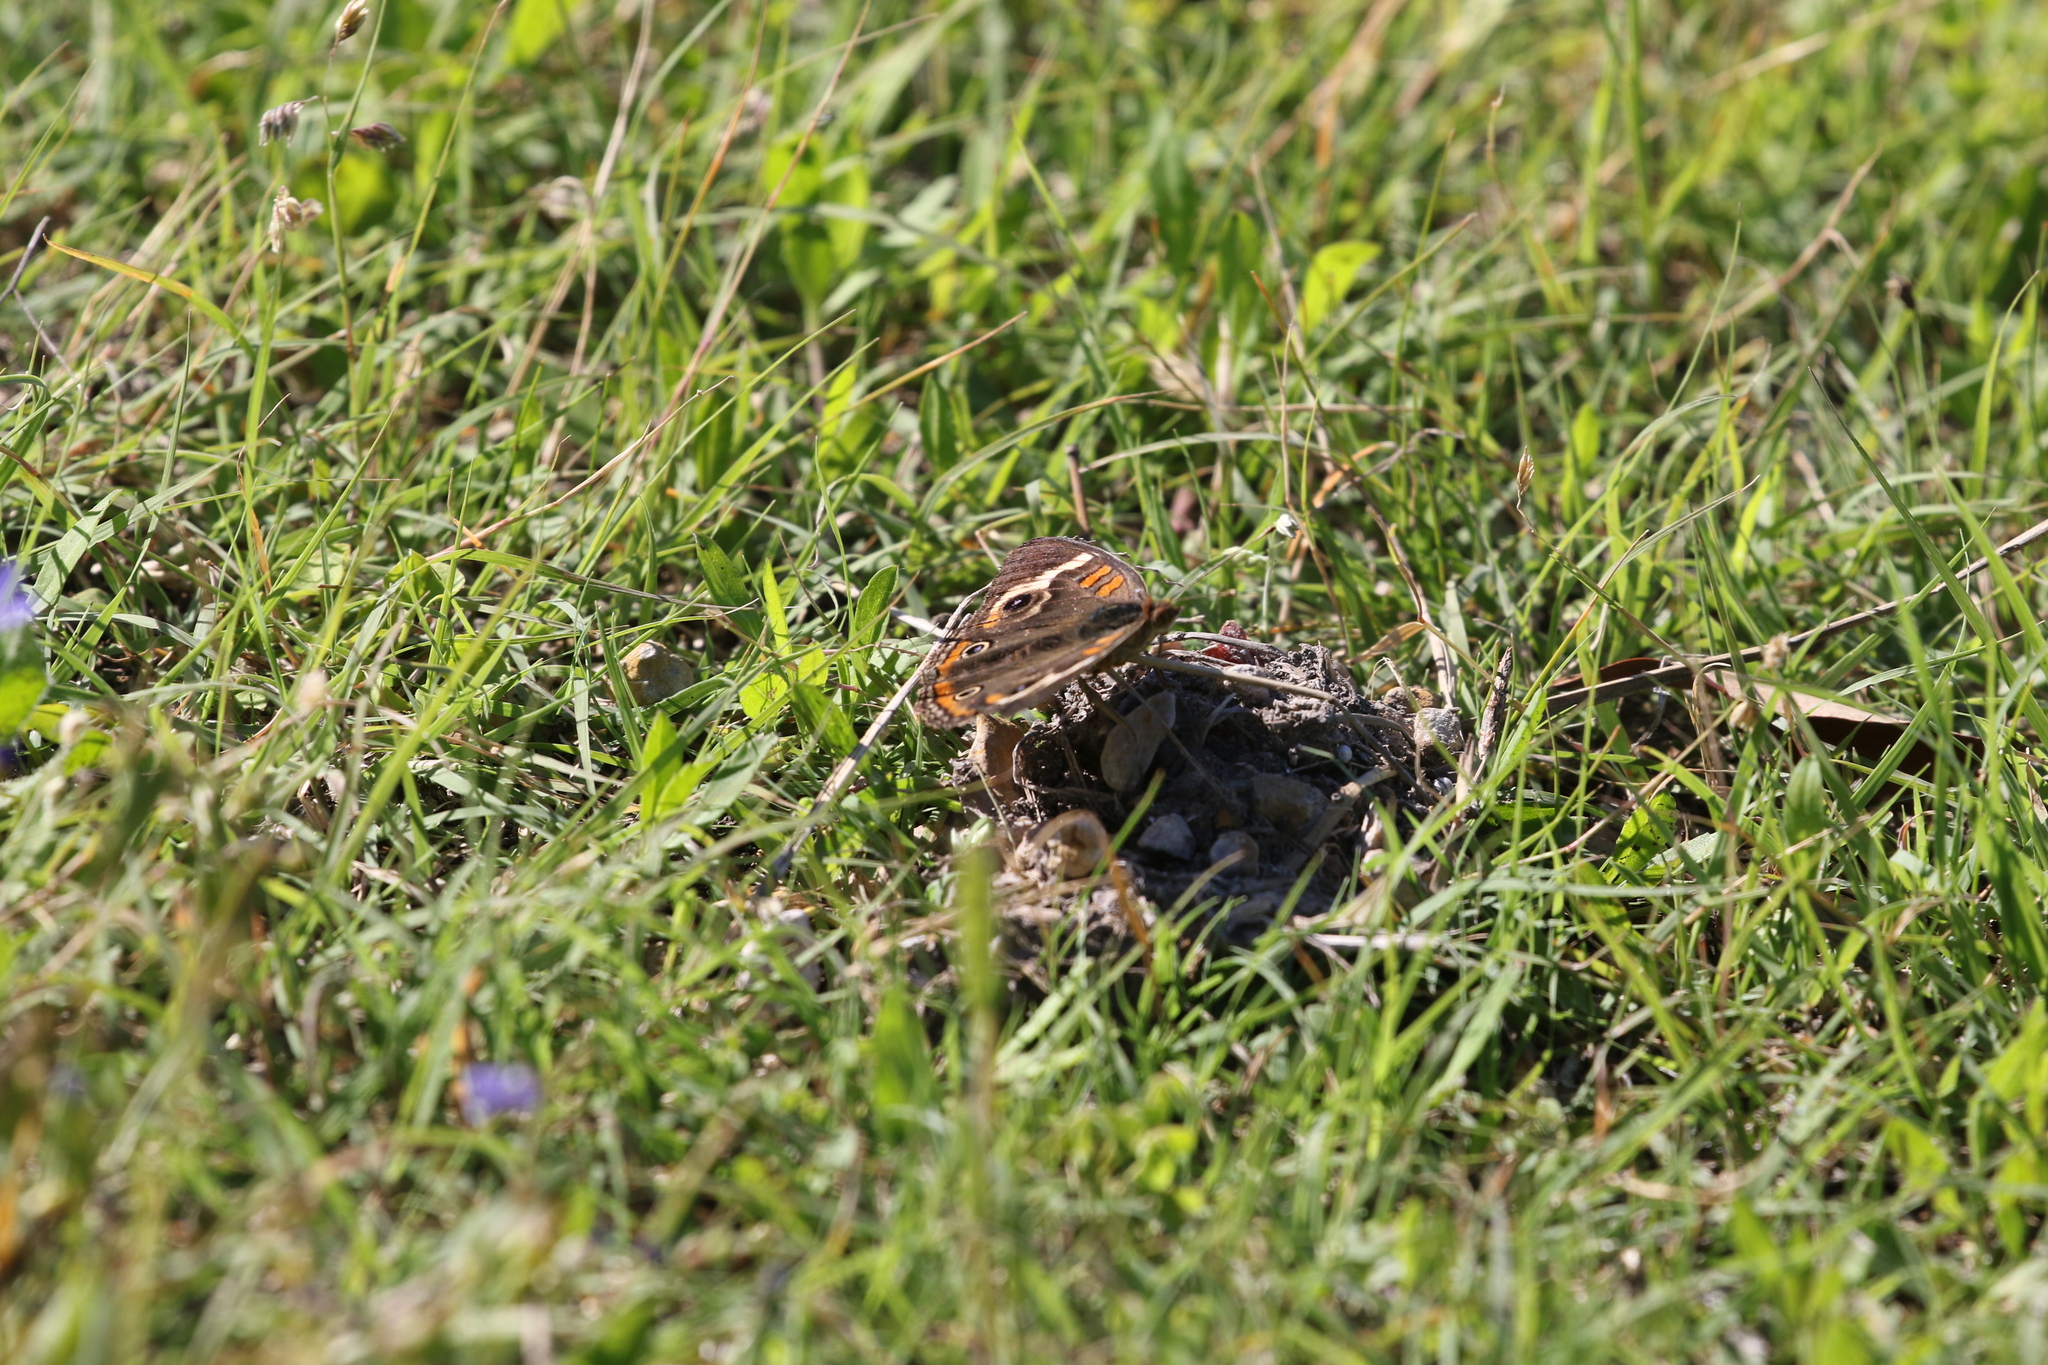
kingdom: Animalia
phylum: Arthropoda
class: Insecta
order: Lepidoptera
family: Nymphalidae
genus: Junonia
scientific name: Junonia coenia
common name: Common buckeye
